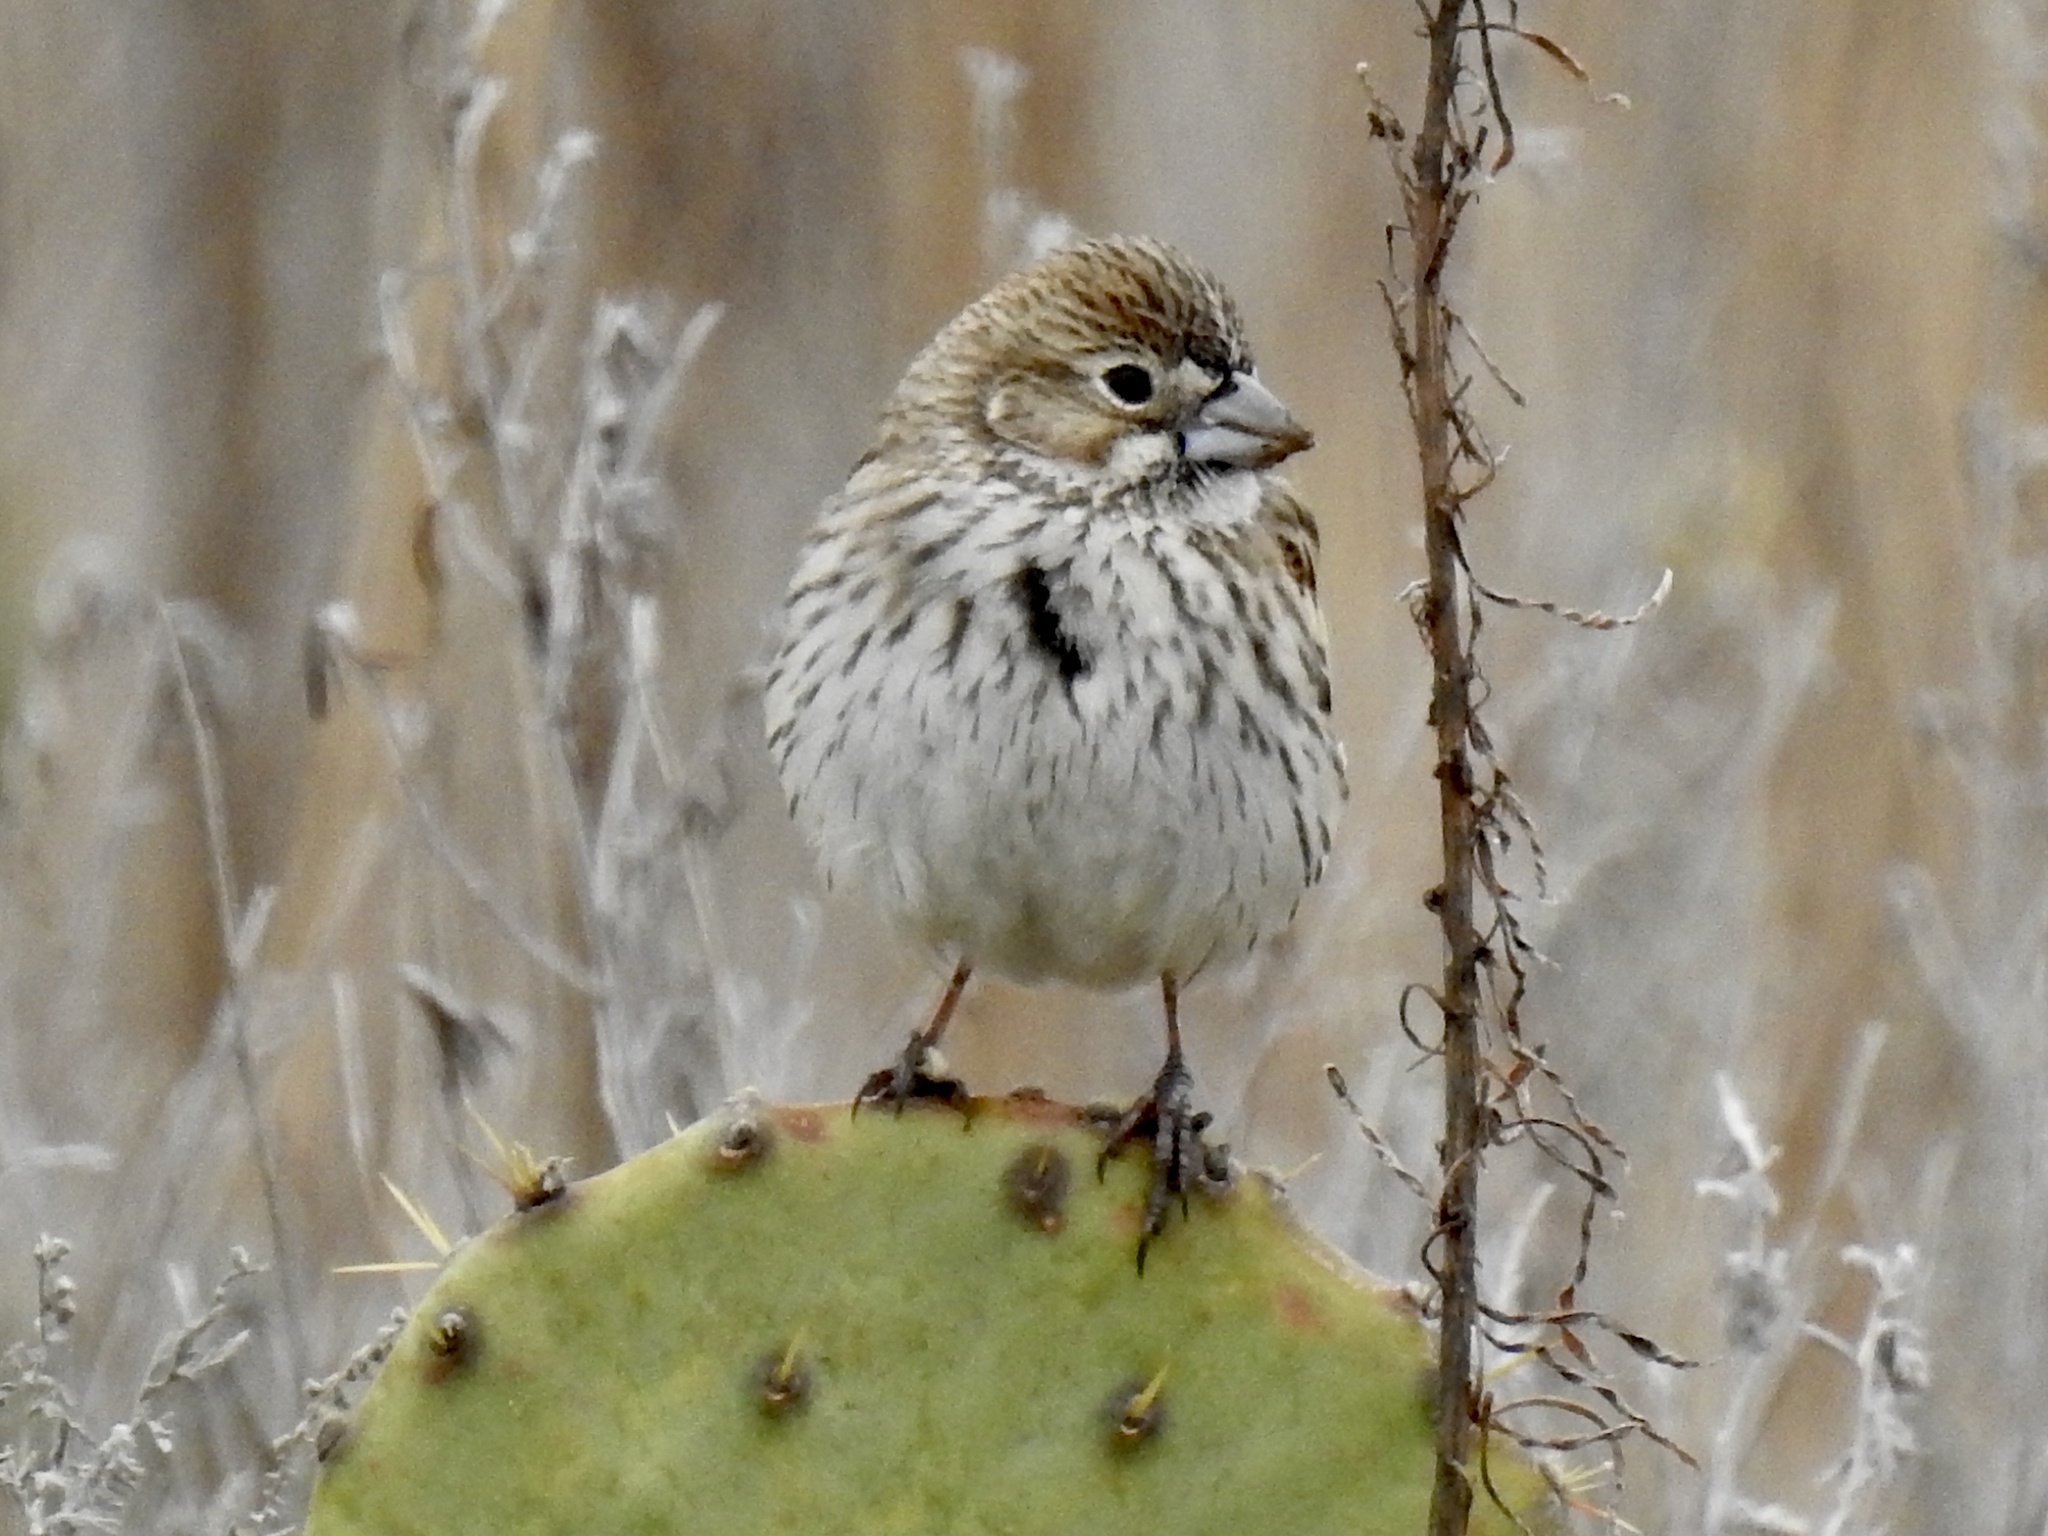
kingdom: Animalia
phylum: Chordata
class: Aves
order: Passeriformes
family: Passerellidae
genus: Calamospiza
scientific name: Calamospiza melanocorys
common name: Lark bunting
